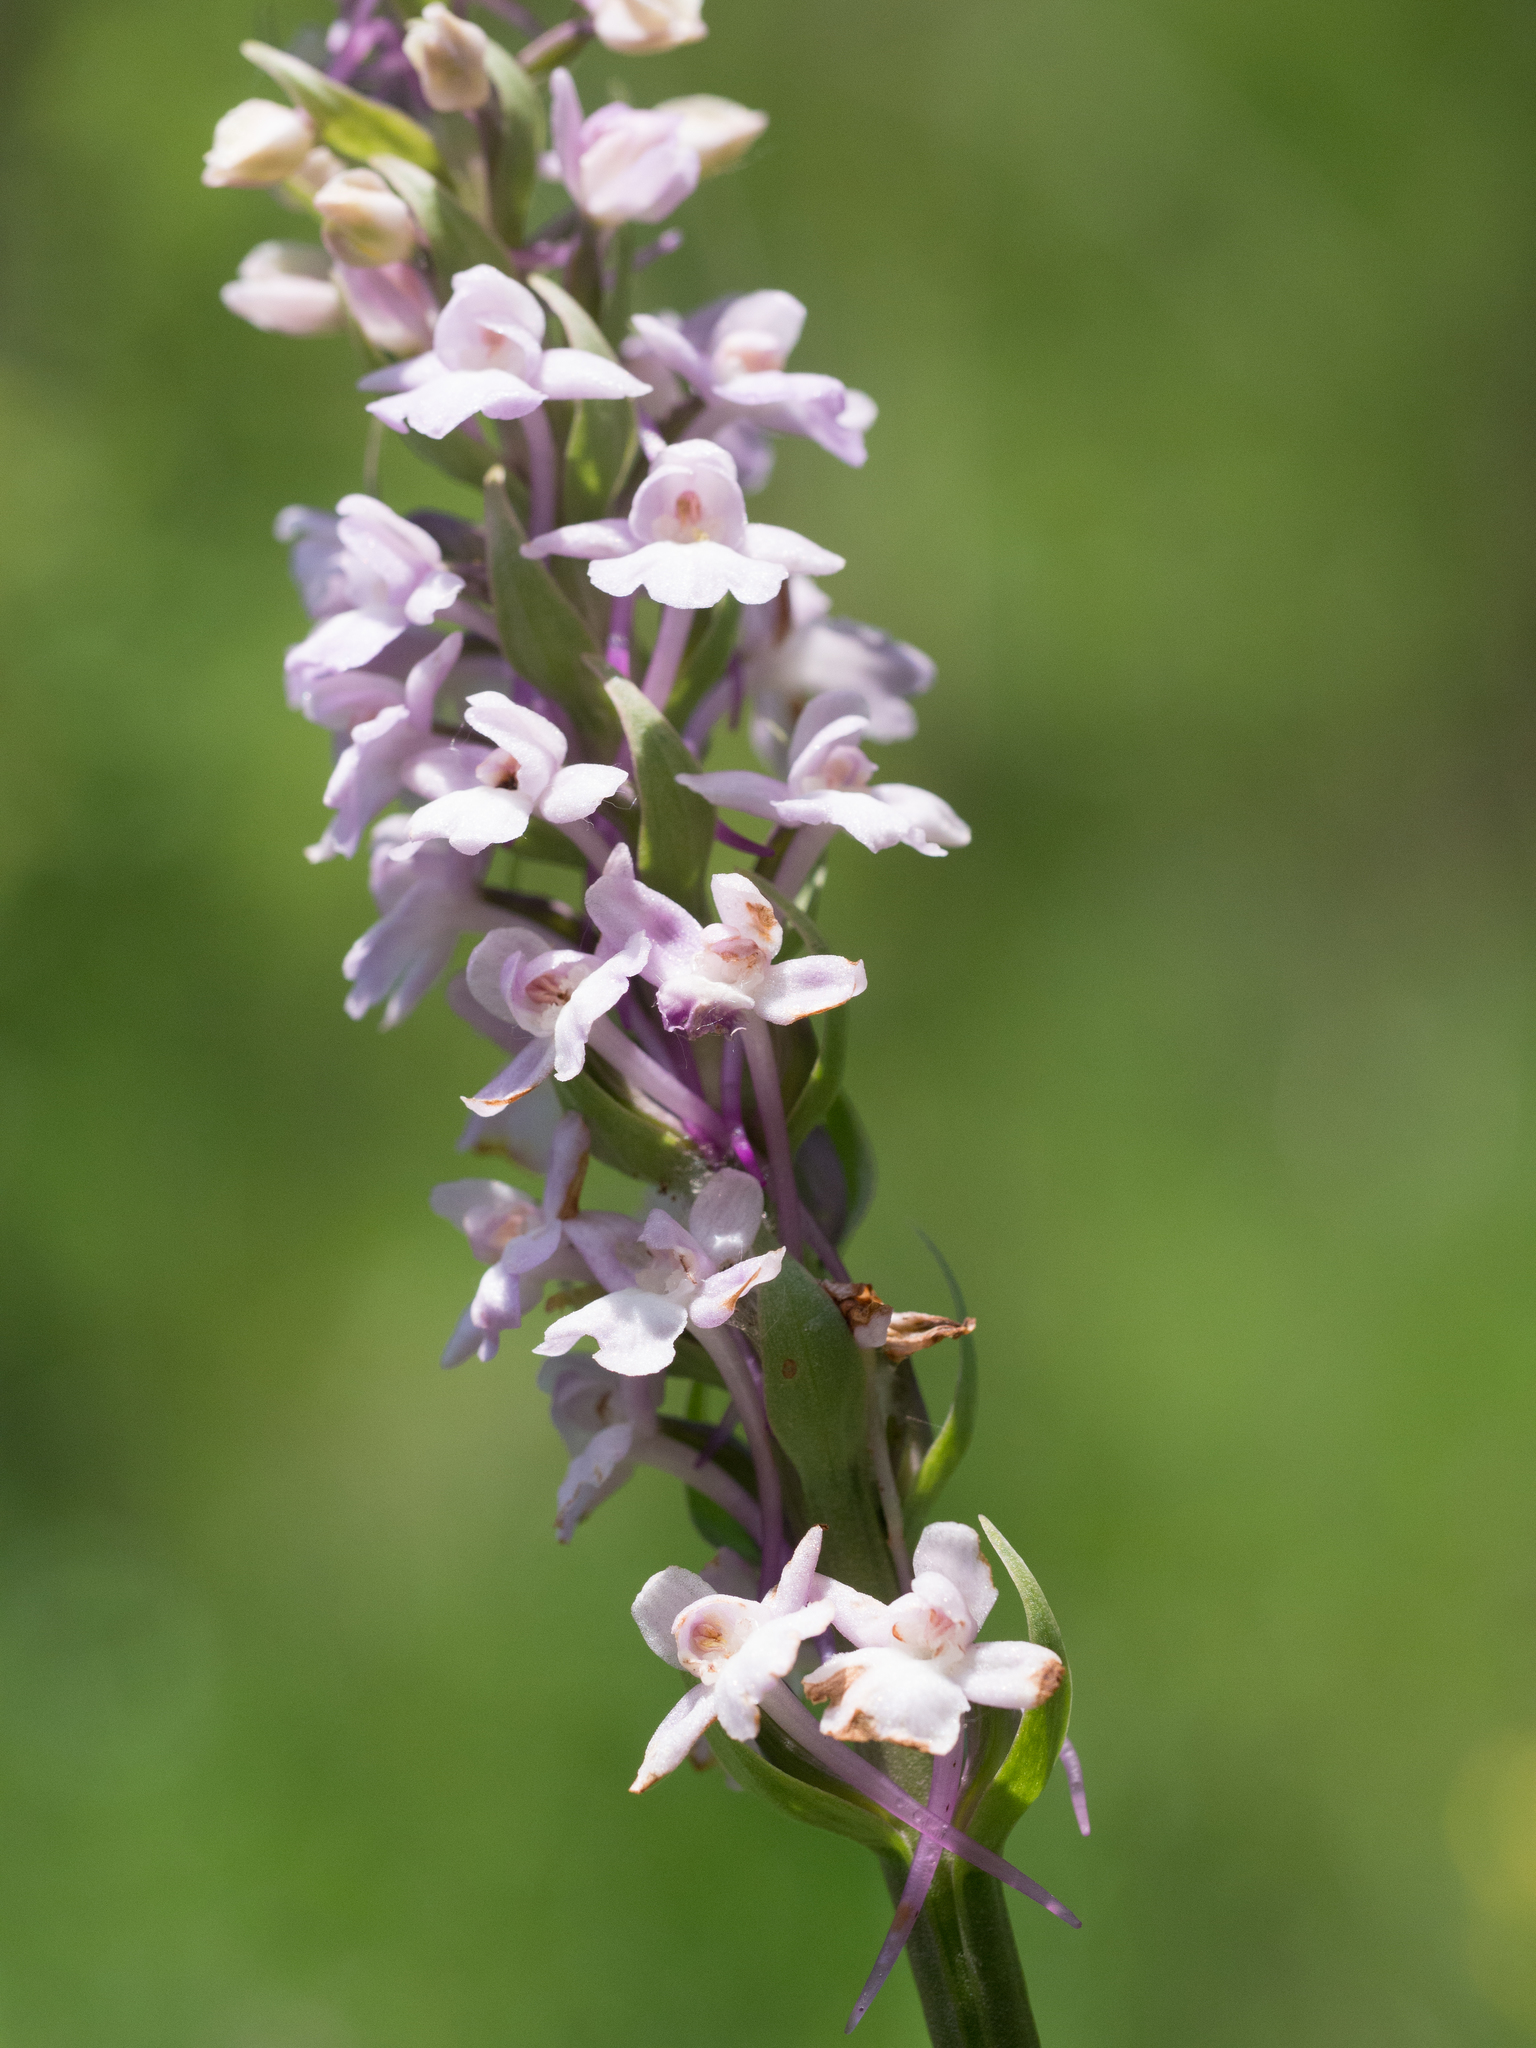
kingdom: Plantae
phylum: Tracheophyta
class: Liliopsida
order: Asparagales
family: Orchidaceae
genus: Gymnadenia
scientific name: Gymnadenia conopsea
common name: Fragrant orchid
